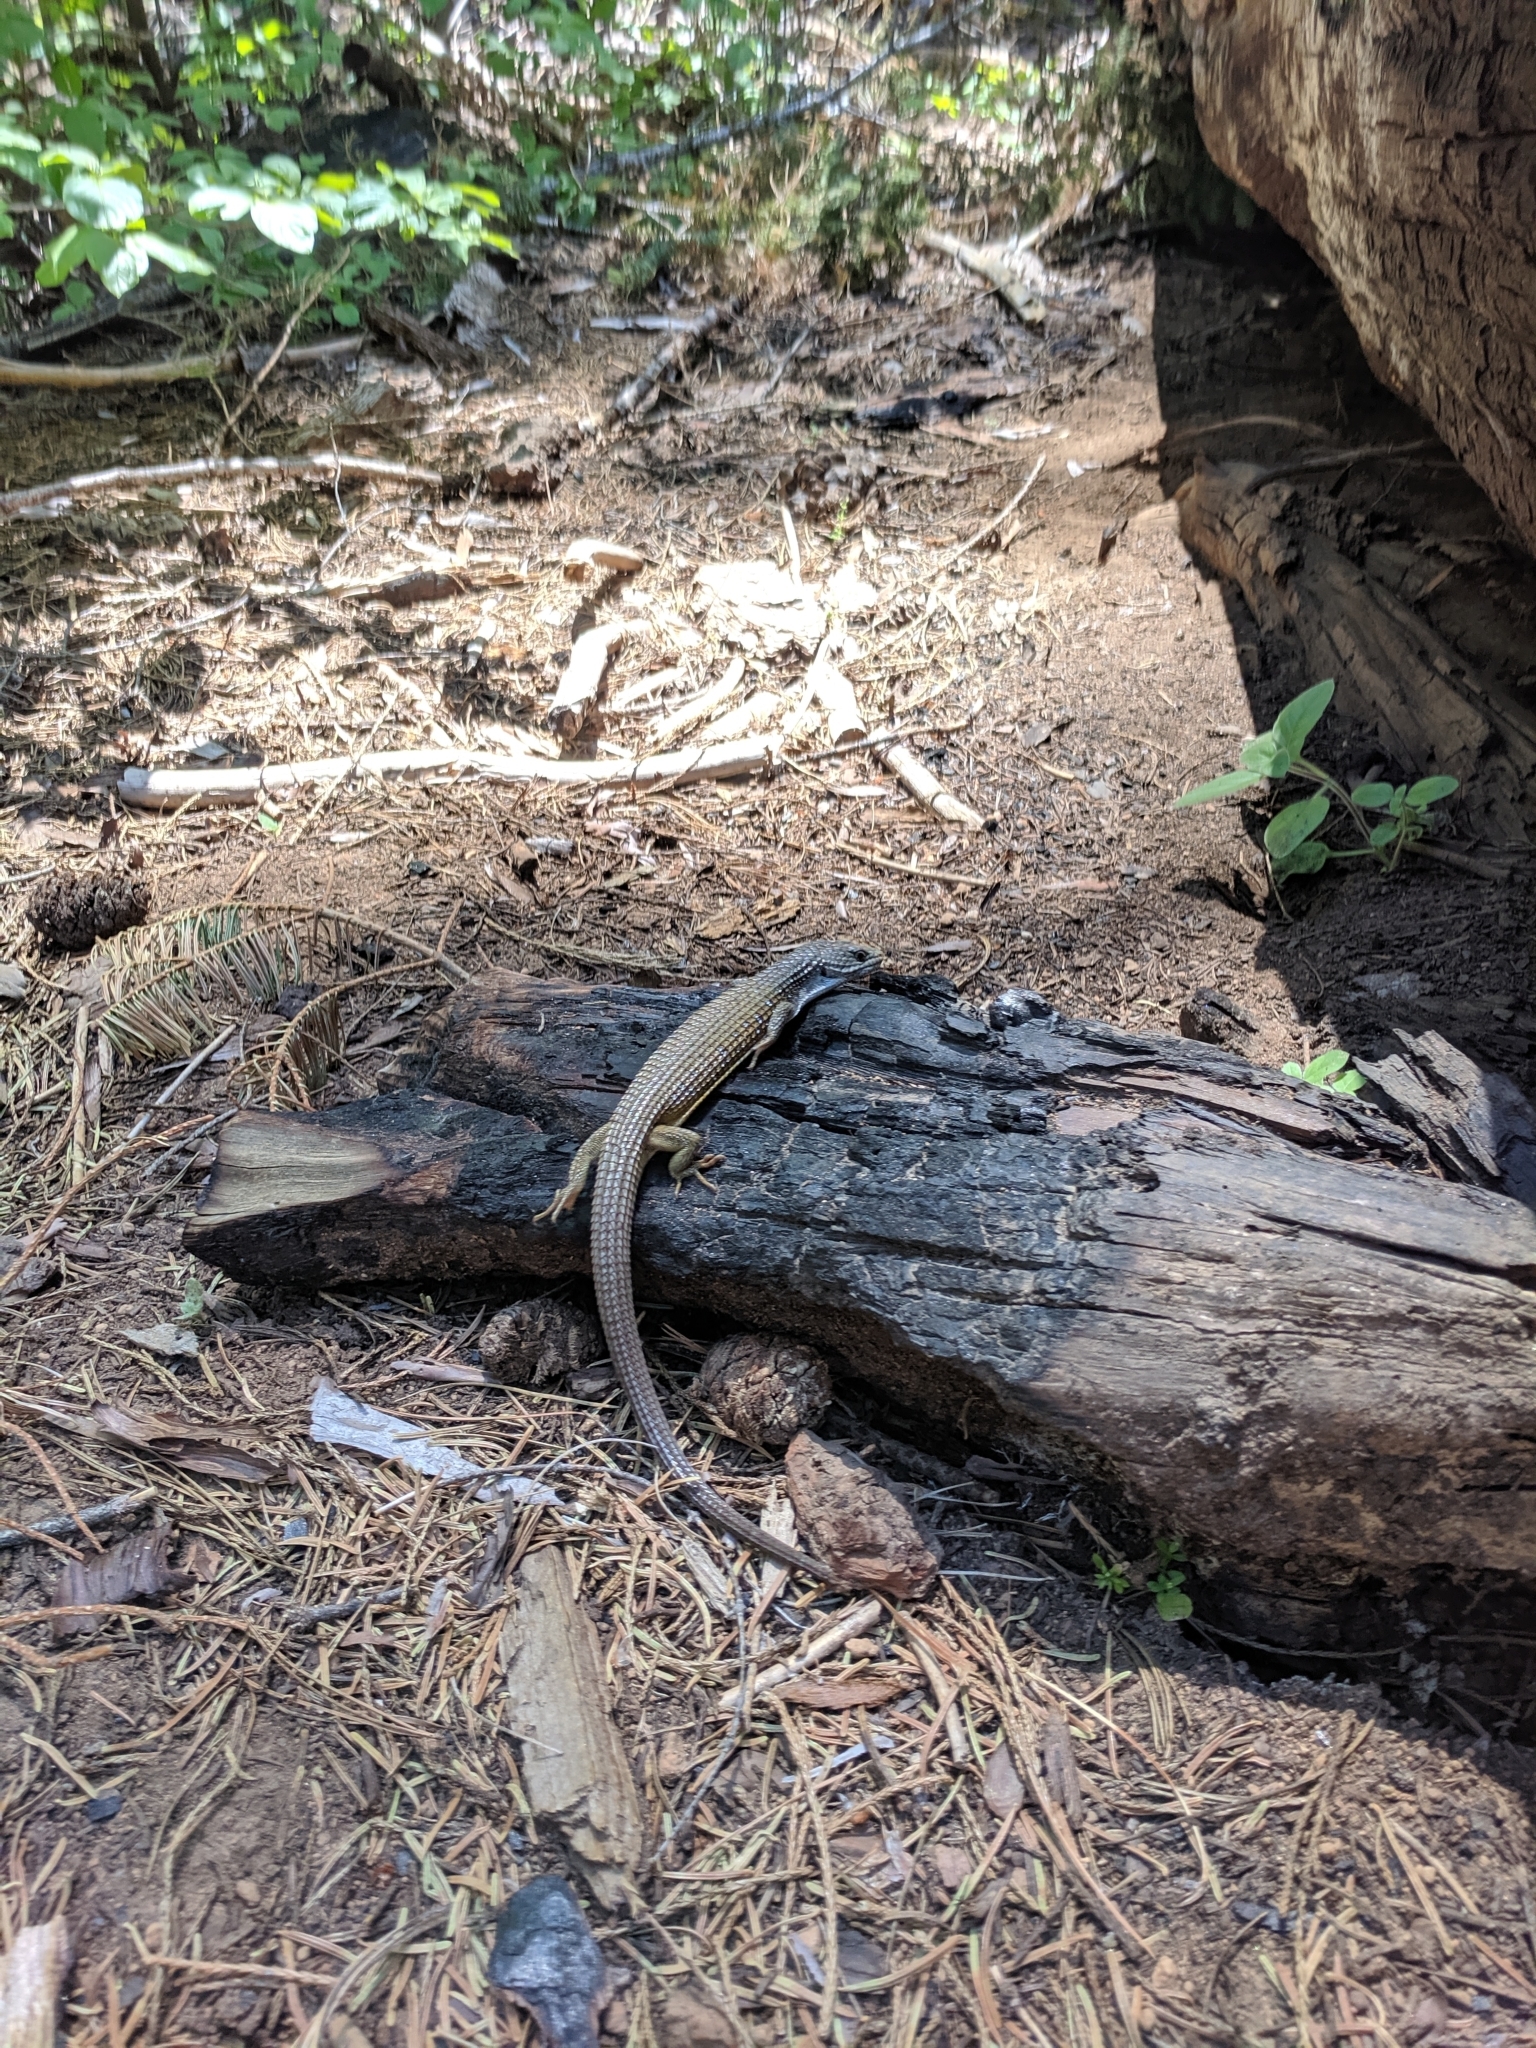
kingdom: Animalia
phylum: Chordata
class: Squamata
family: Anguidae
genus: Elgaria
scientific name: Elgaria coerulea
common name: Northern alligator lizard
